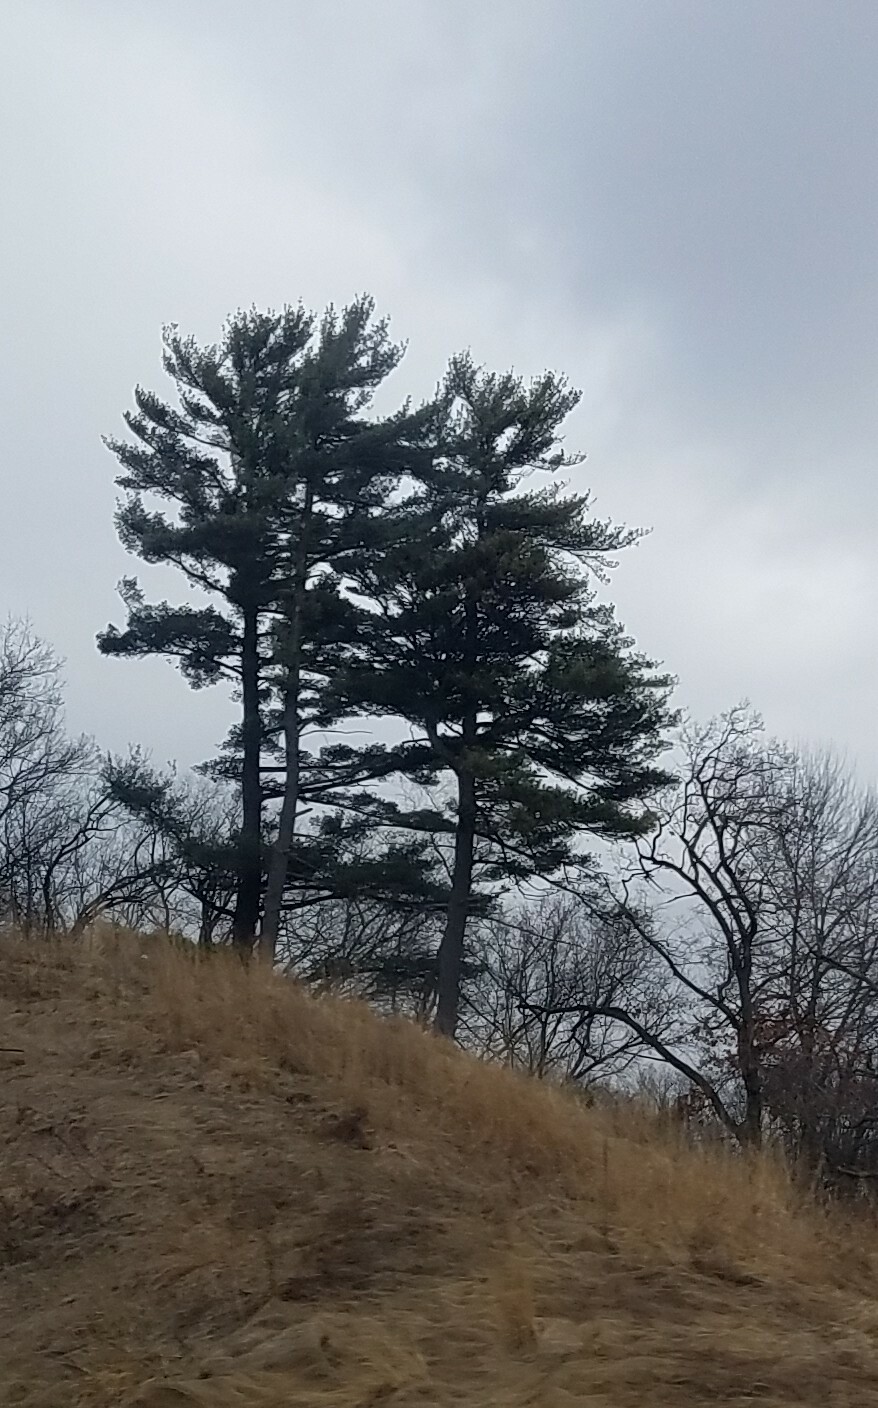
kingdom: Plantae
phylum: Tracheophyta
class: Pinopsida
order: Pinales
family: Pinaceae
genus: Pinus
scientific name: Pinus strobus
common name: Weymouth pine
